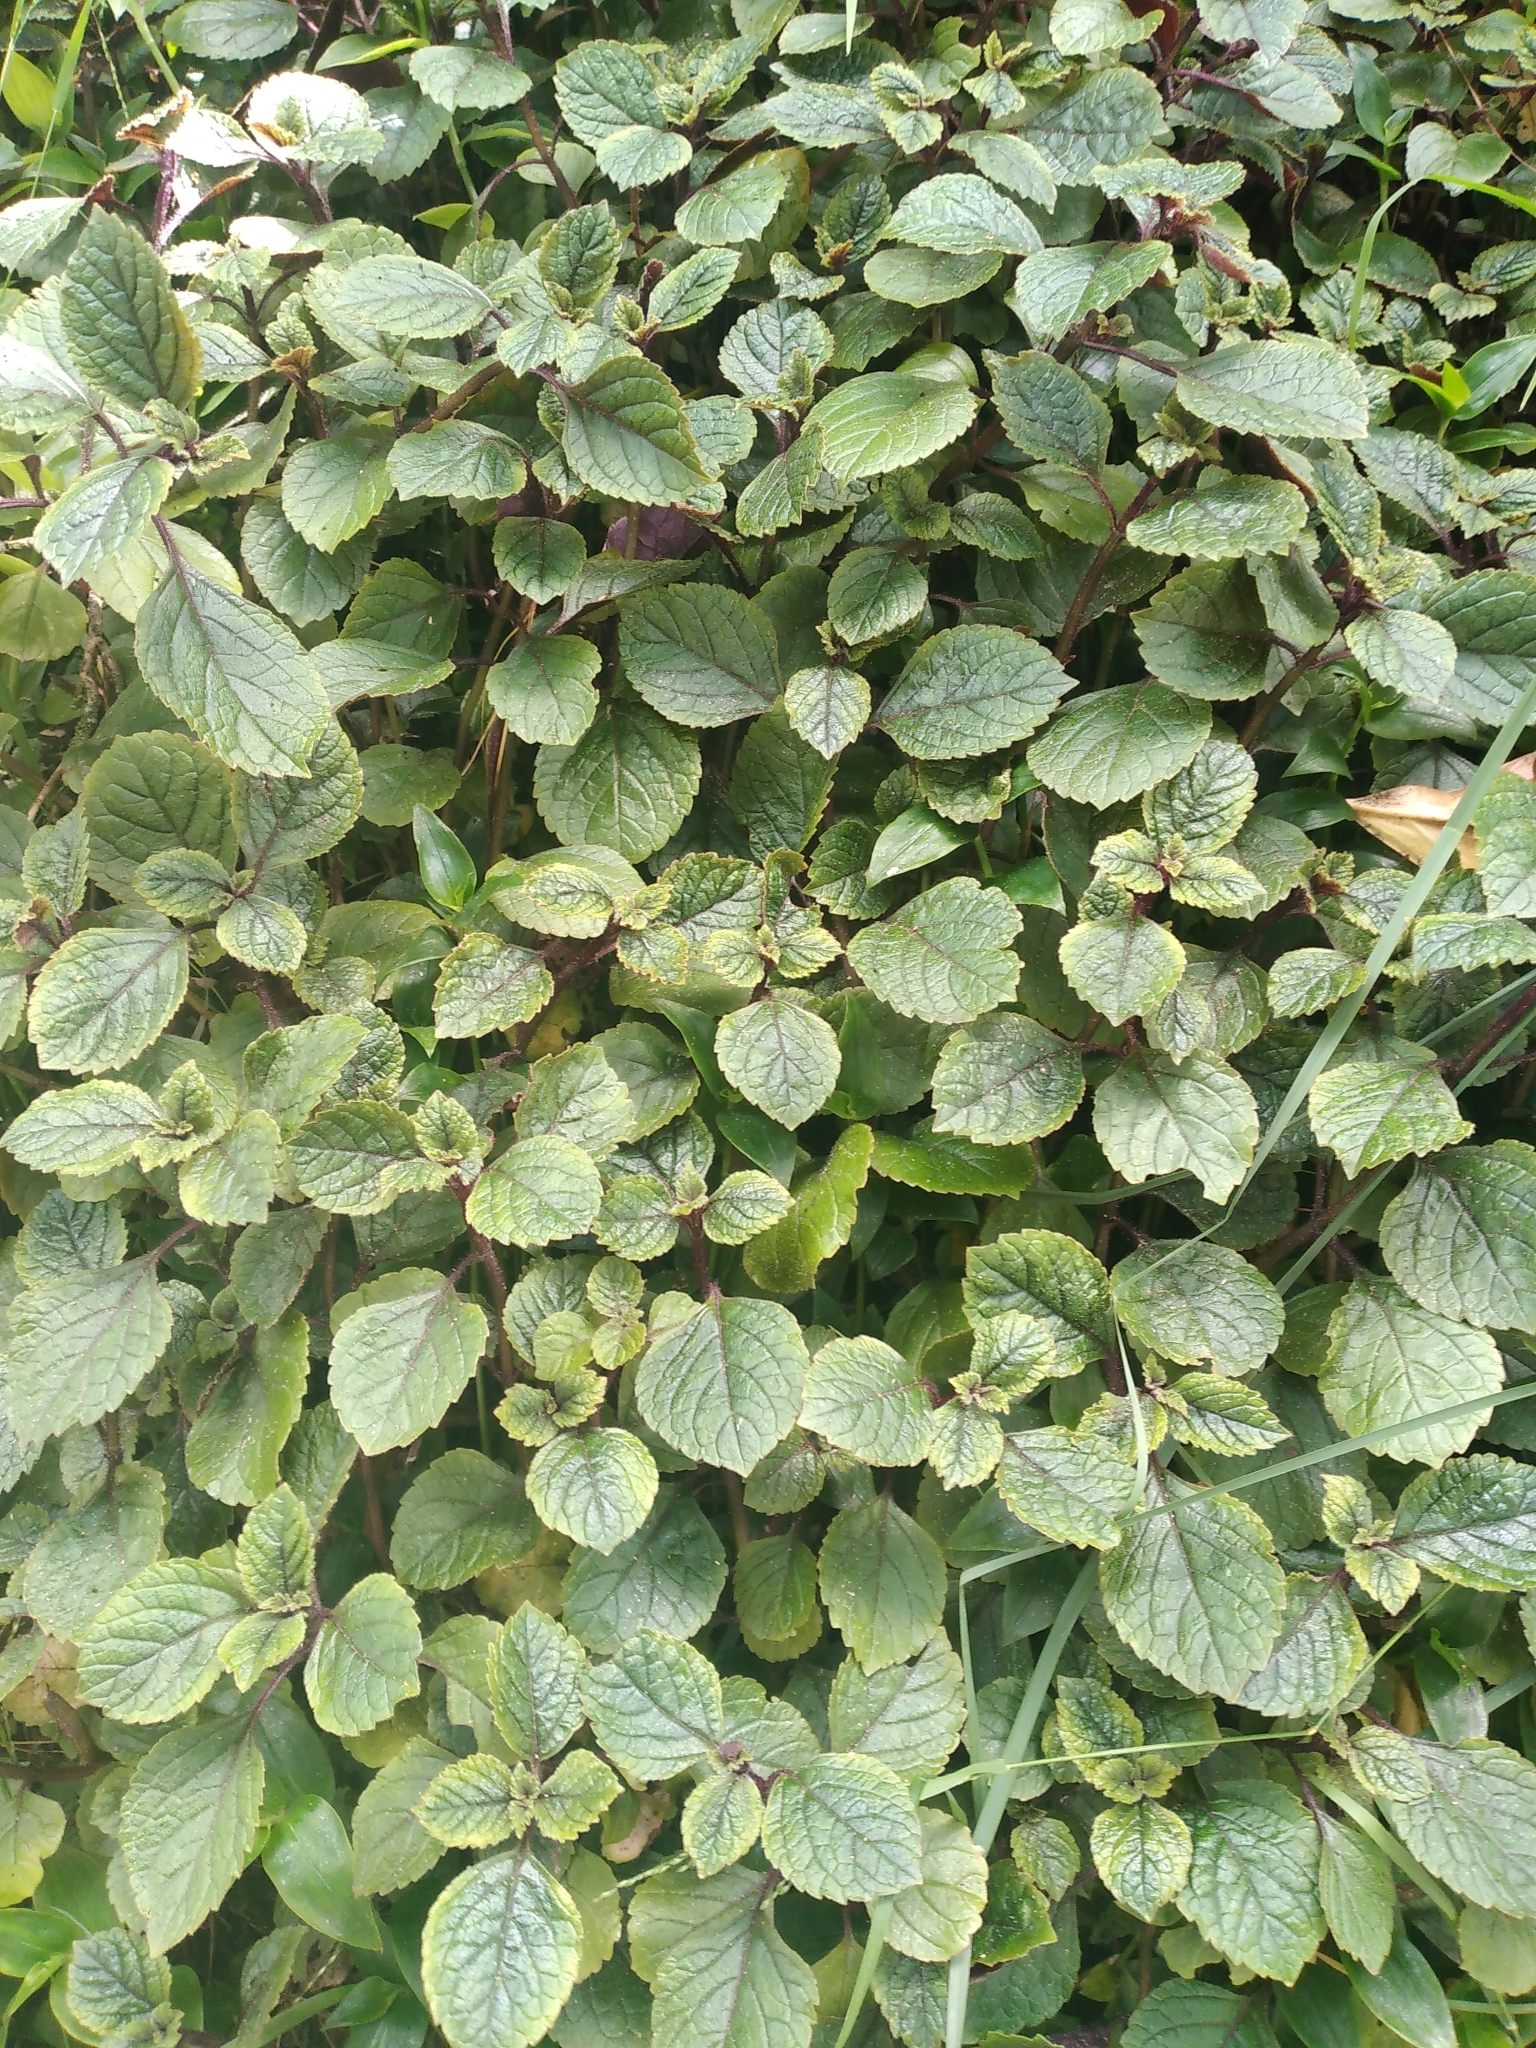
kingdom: Plantae
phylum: Tracheophyta
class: Magnoliopsida
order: Lamiales
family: Lamiaceae
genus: Plectranthus
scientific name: Plectranthus ciliatus
